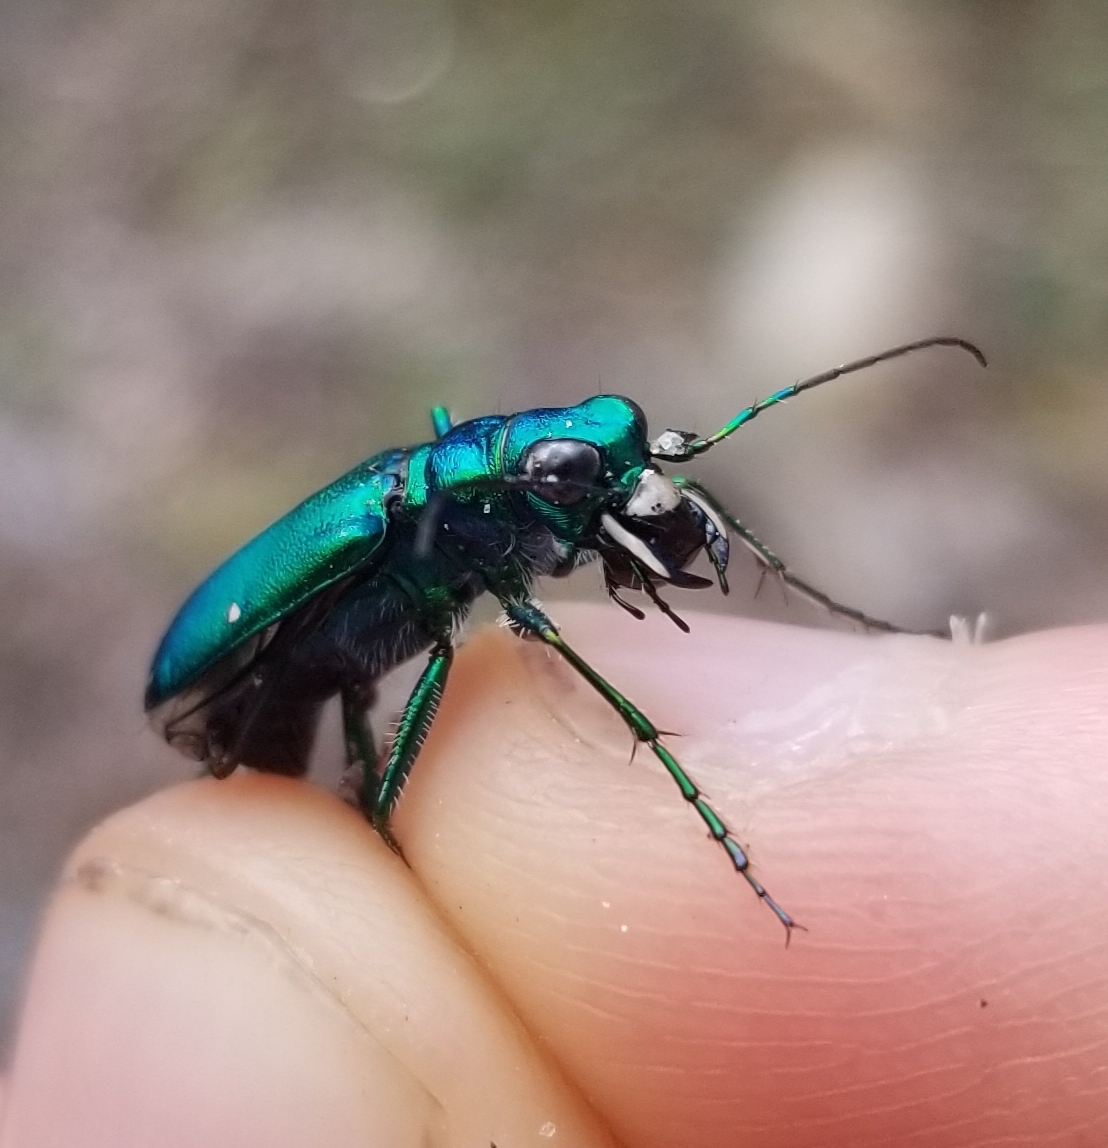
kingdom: Animalia
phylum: Arthropoda
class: Insecta
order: Coleoptera
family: Carabidae
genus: Cicindela
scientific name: Cicindela sexguttata
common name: Six-spotted tiger beetle
